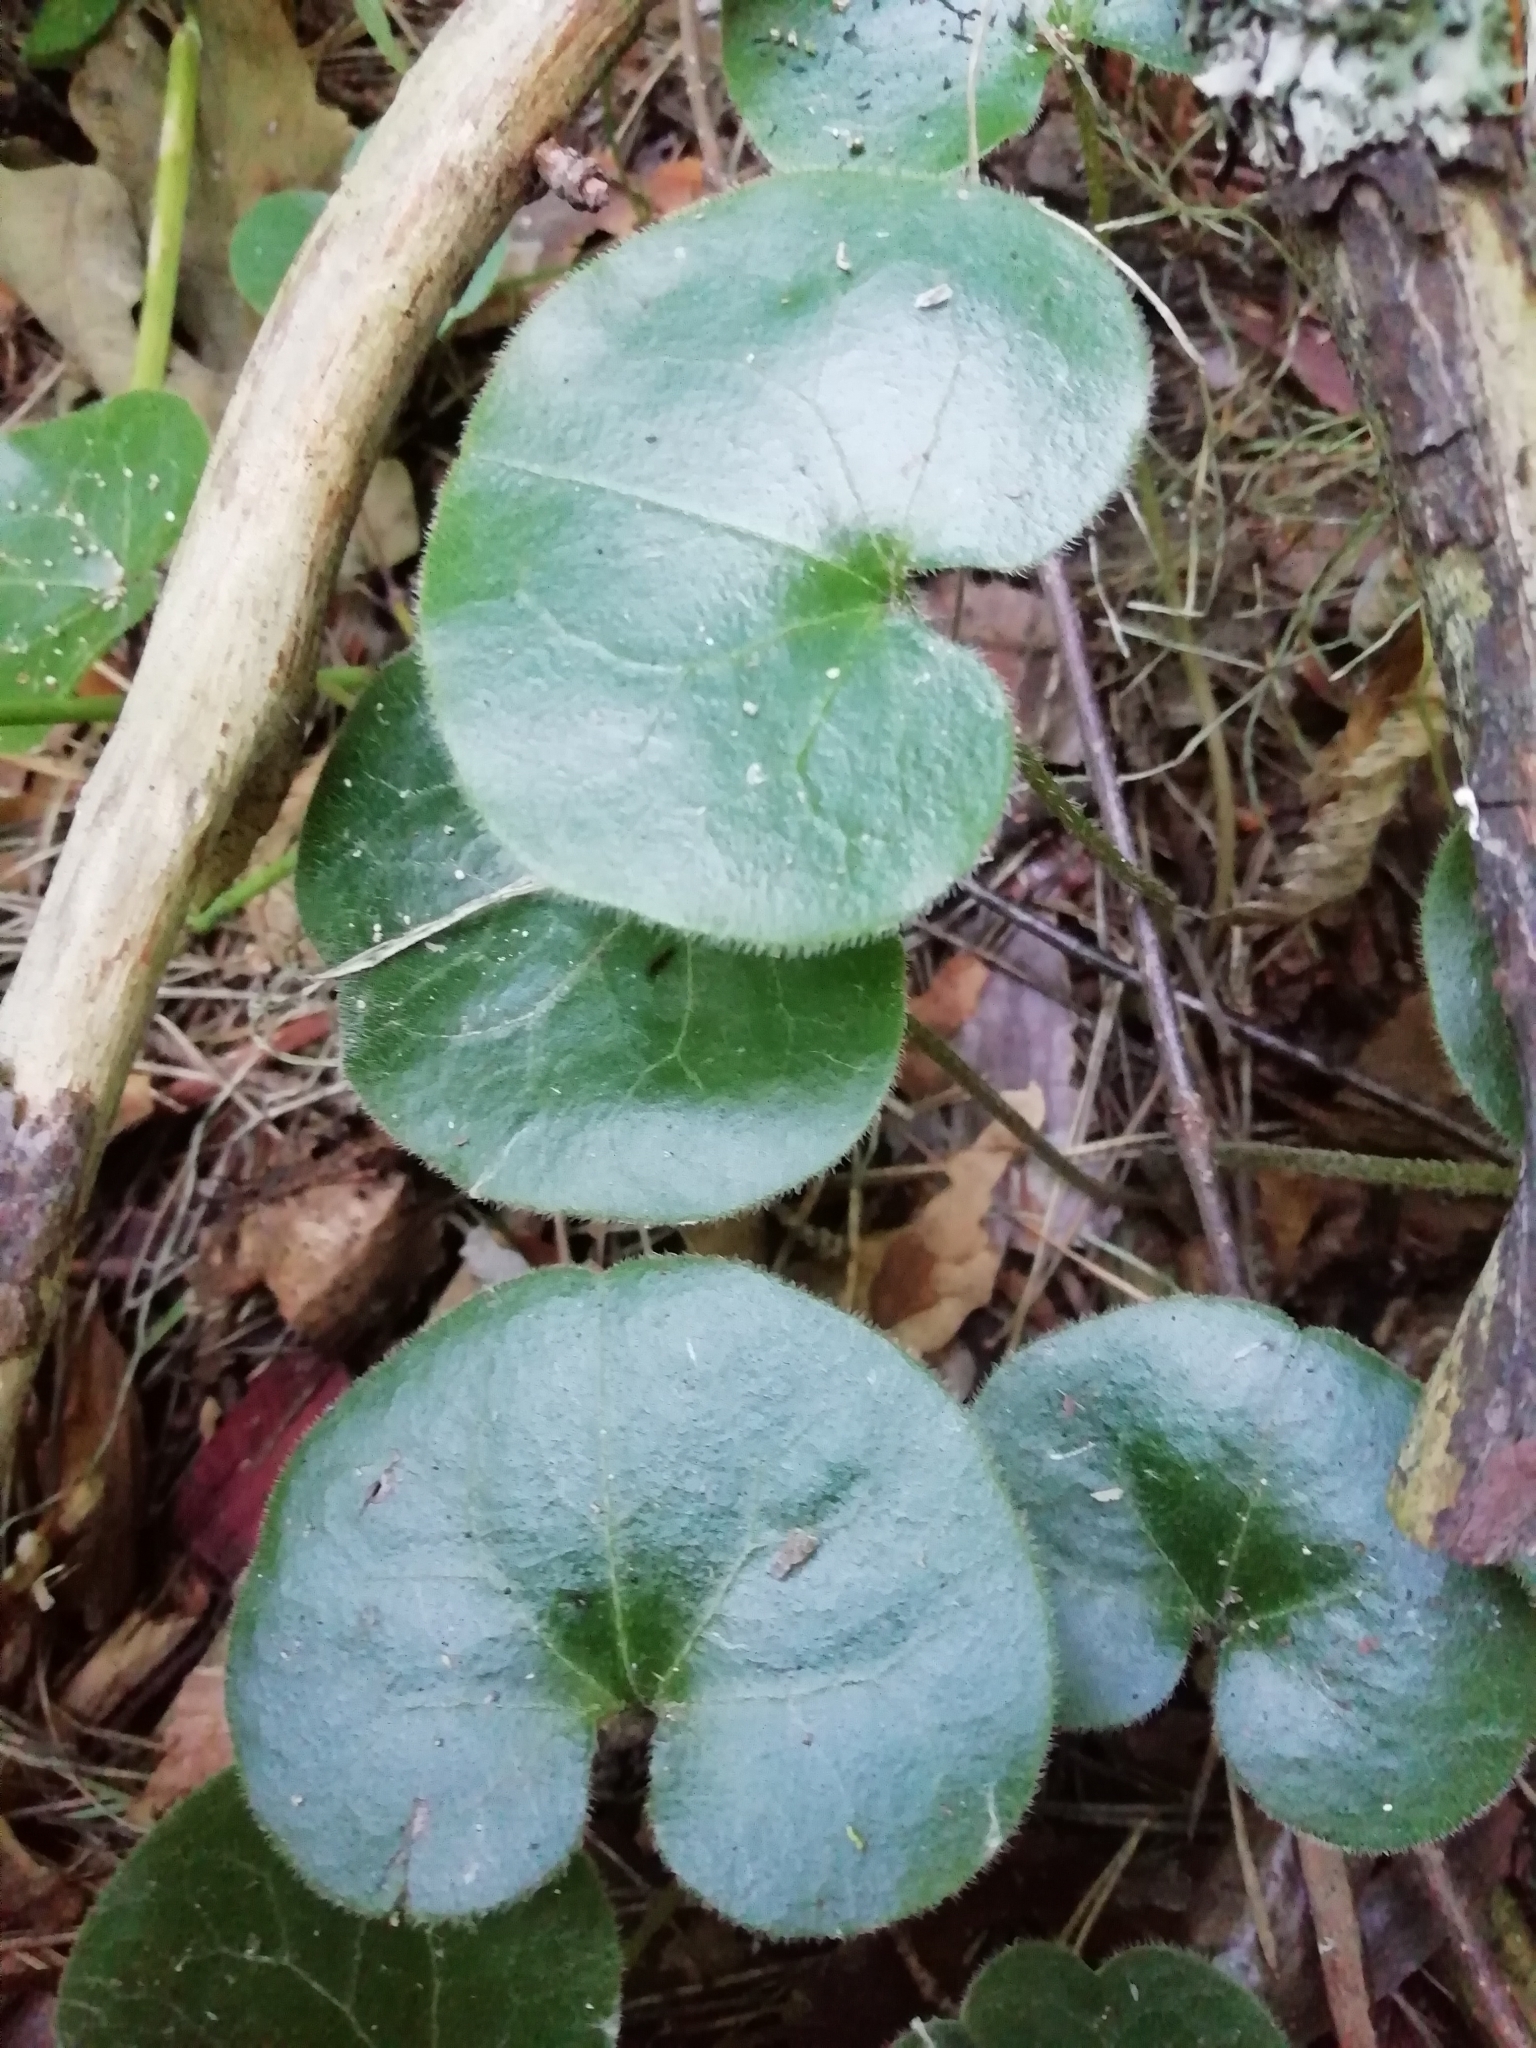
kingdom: Plantae
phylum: Tracheophyta
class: Magnoliopsida
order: Piperales
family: Aristolochiaceae
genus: Asarum
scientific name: Asarum europaeum
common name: Asarabacca
